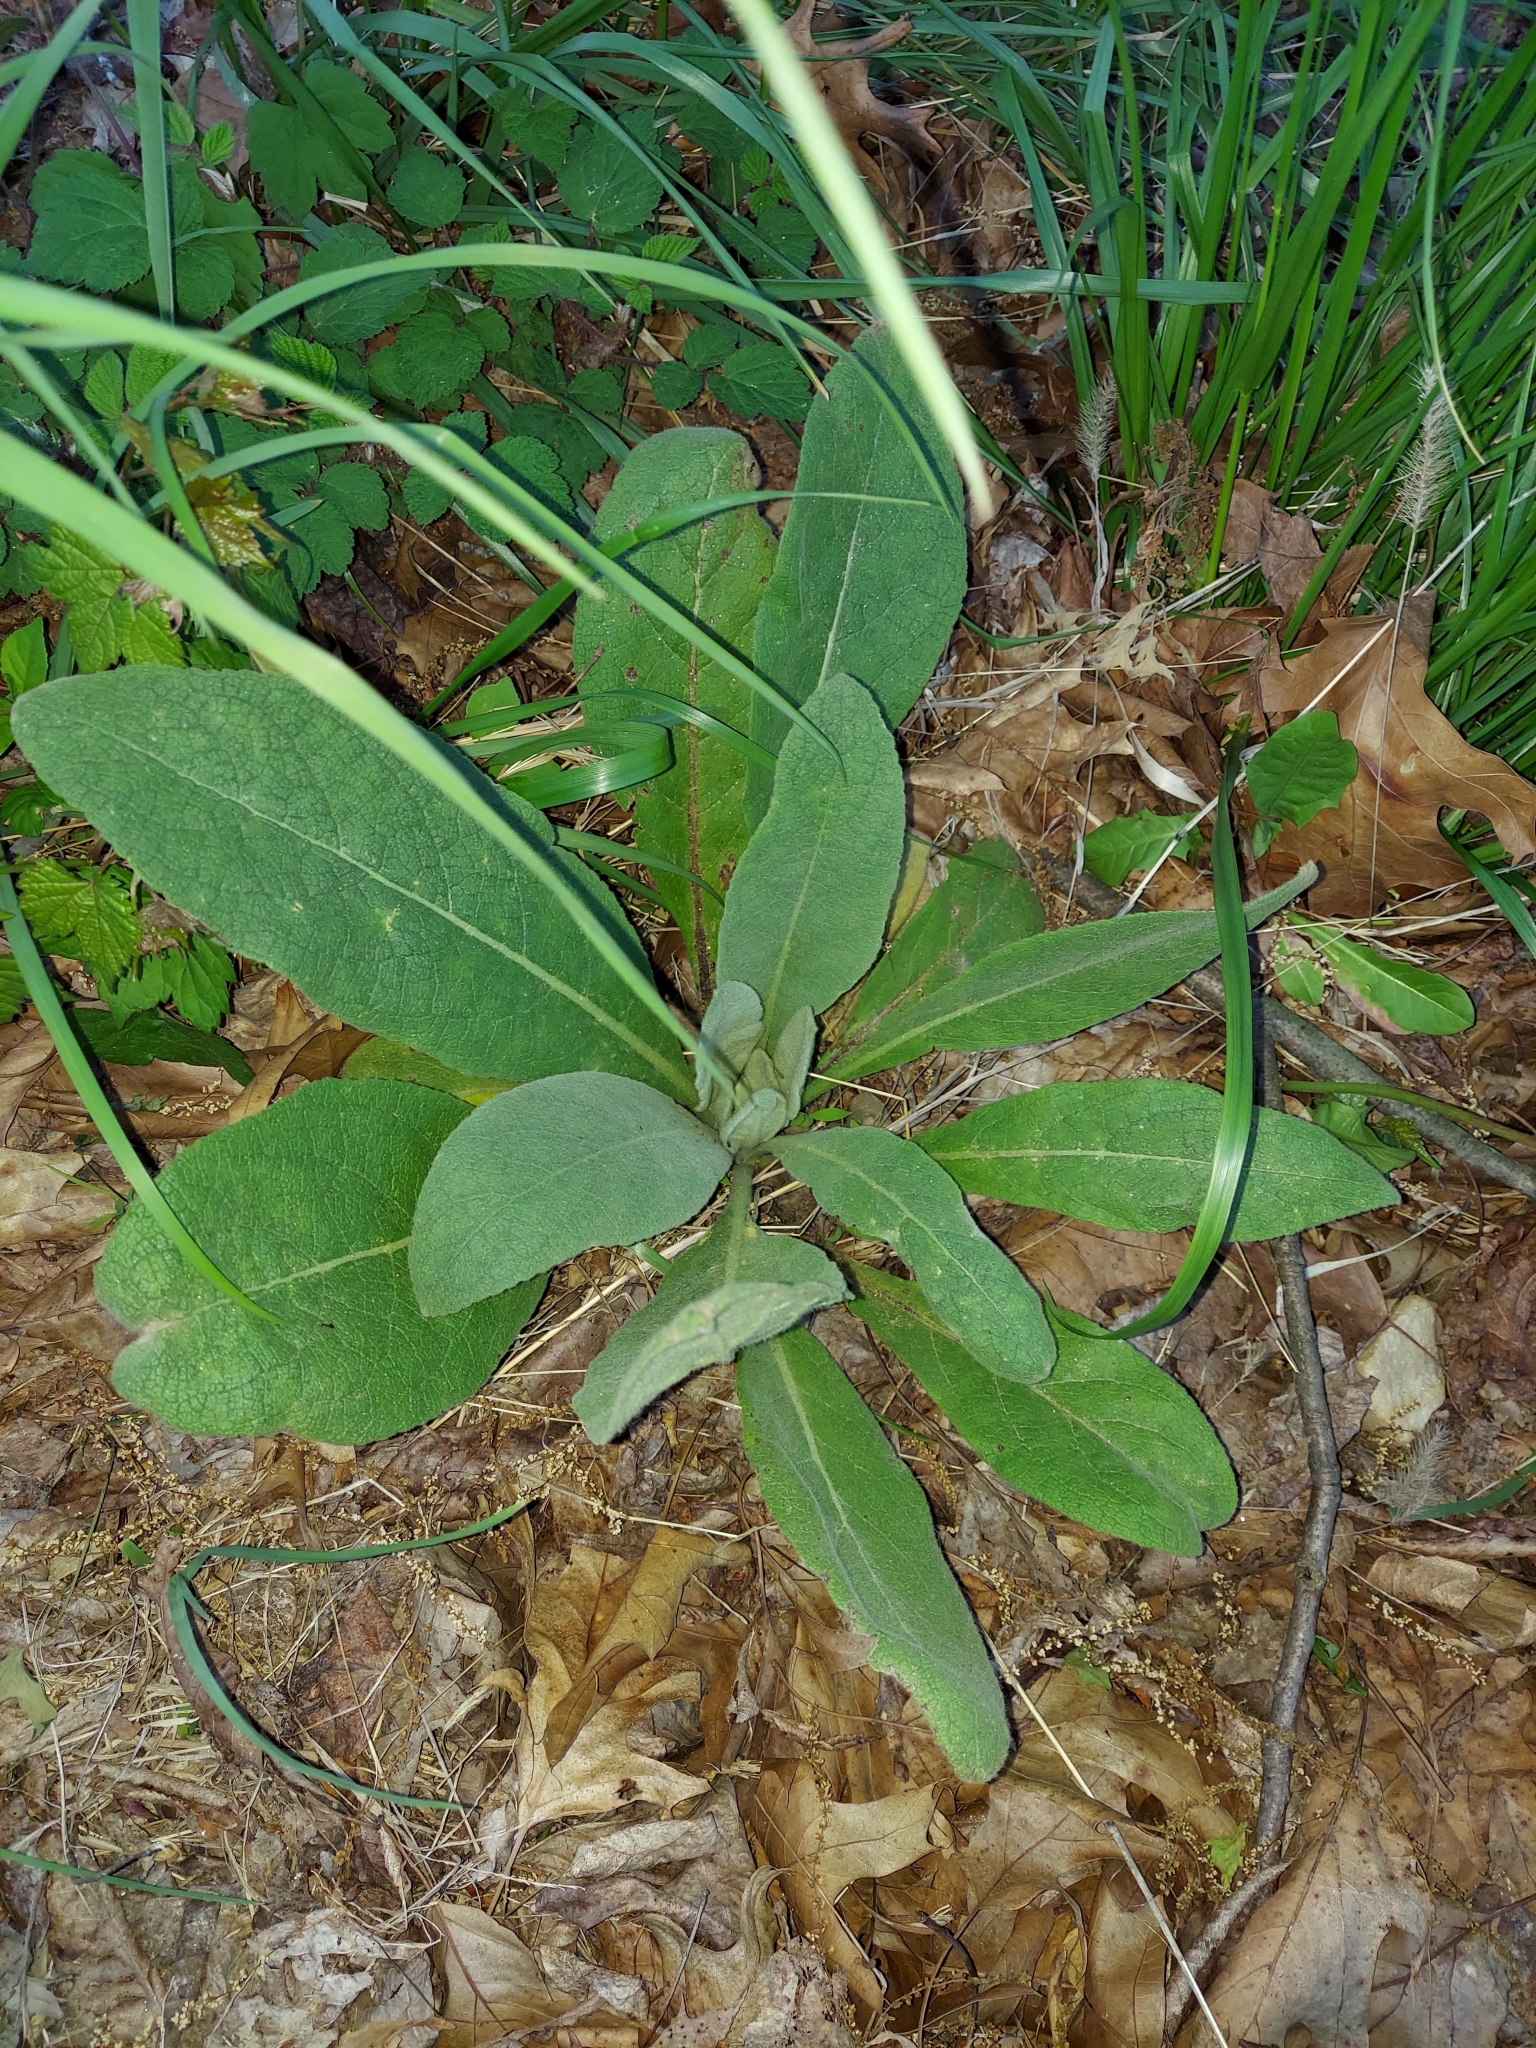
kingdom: Plantae
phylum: Tracheophyta
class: Magnoliopsida
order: Lamiales
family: Scrophulariaceae
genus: Verbascum
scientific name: Verbascum thapsus
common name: Common mullein
